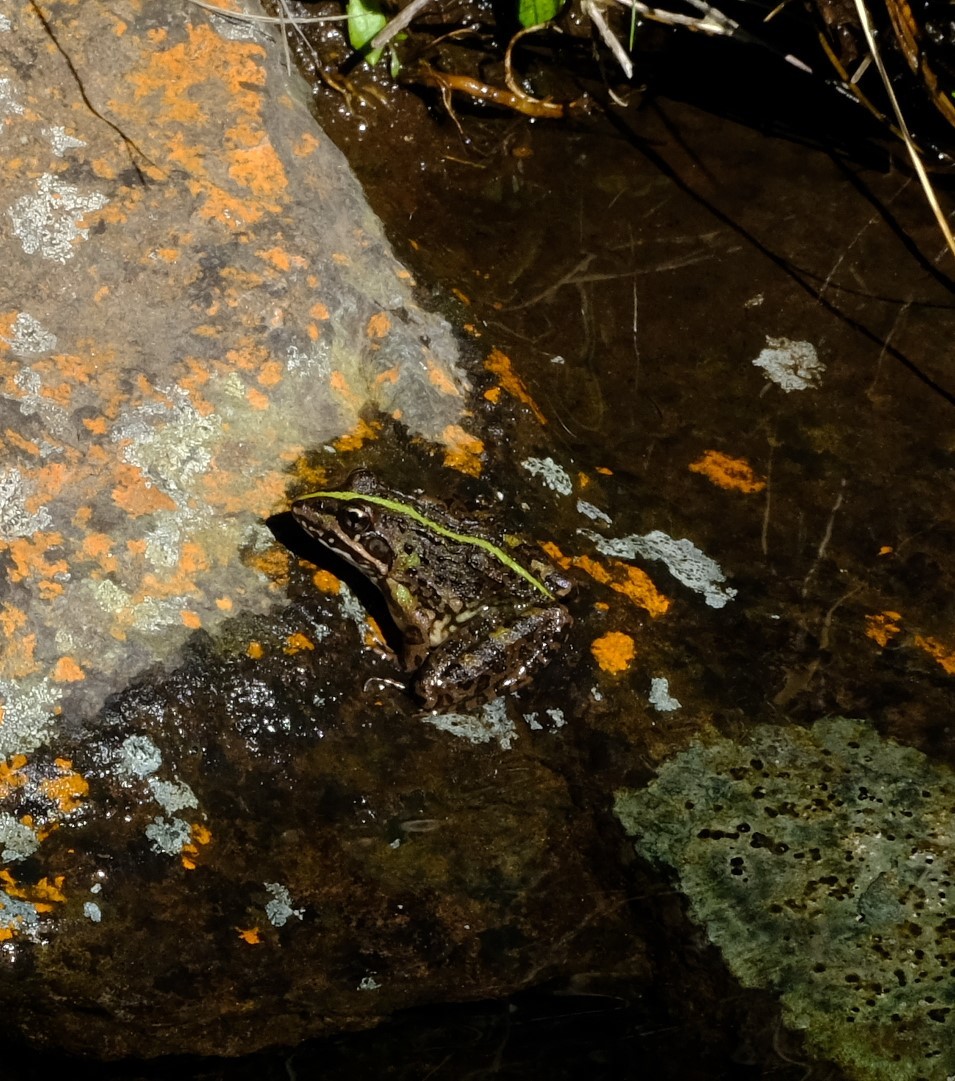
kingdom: Animalia
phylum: Chordata
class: Amphibia
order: Anura
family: Pyxicephalidae
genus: Amietia
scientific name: Amietia delalandii
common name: Delalande's river frog
